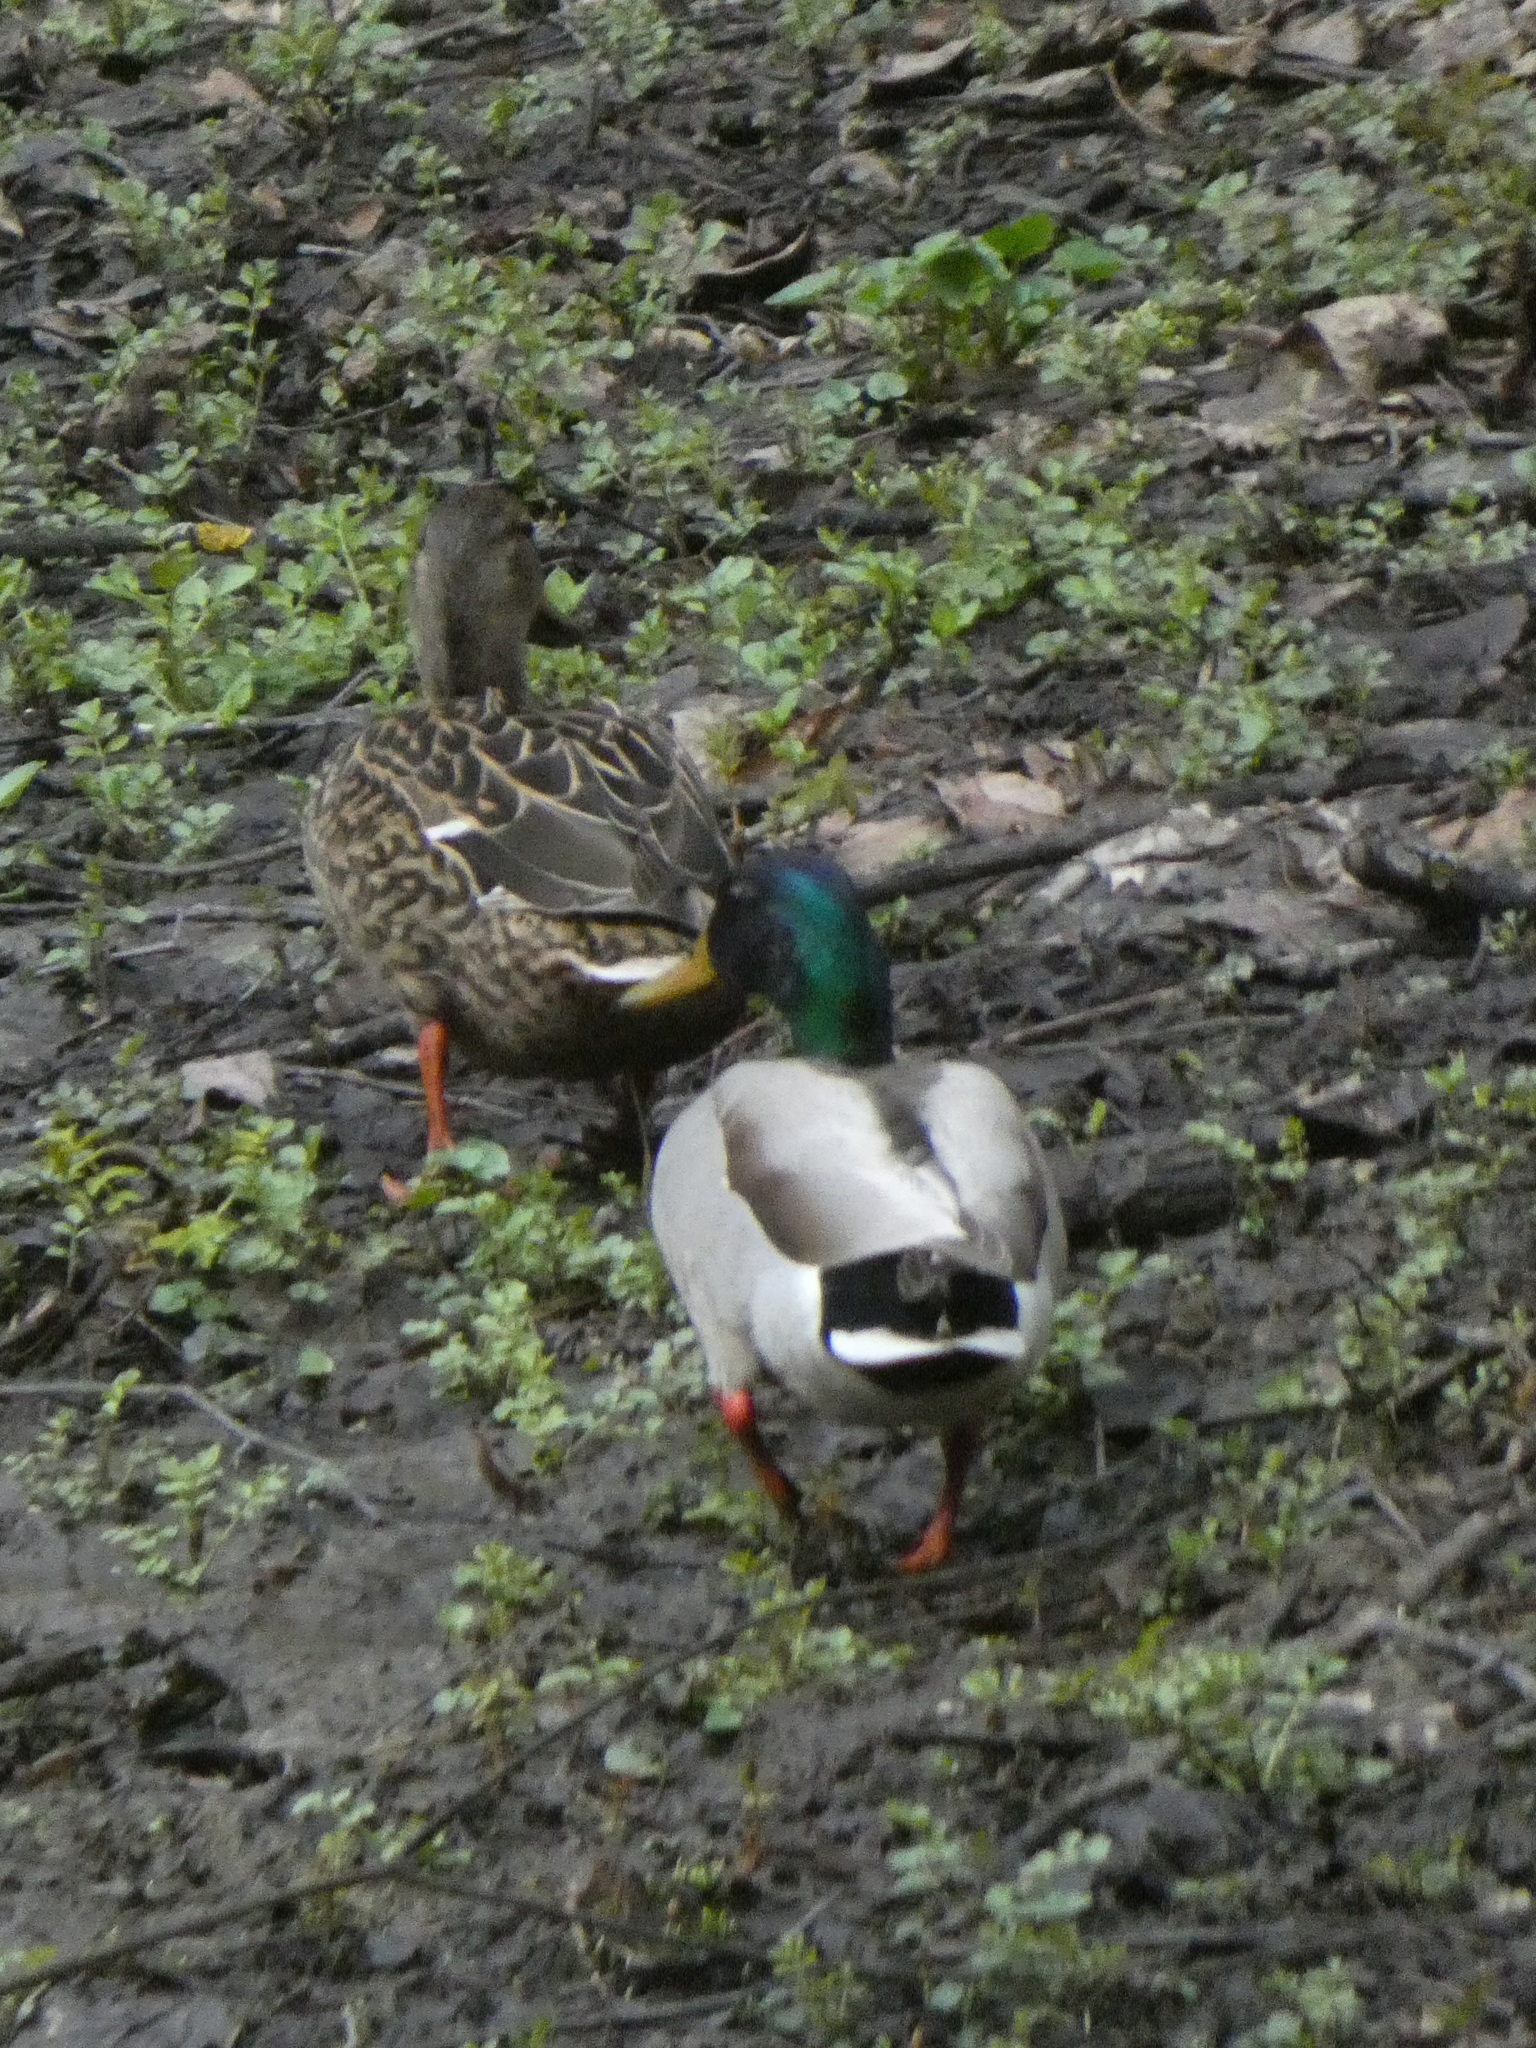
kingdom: Animalia
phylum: Chordata
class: Aves
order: Anseriformes
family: Anatidae
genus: Anas
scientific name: Anas platyrhynchos
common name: Mallard
